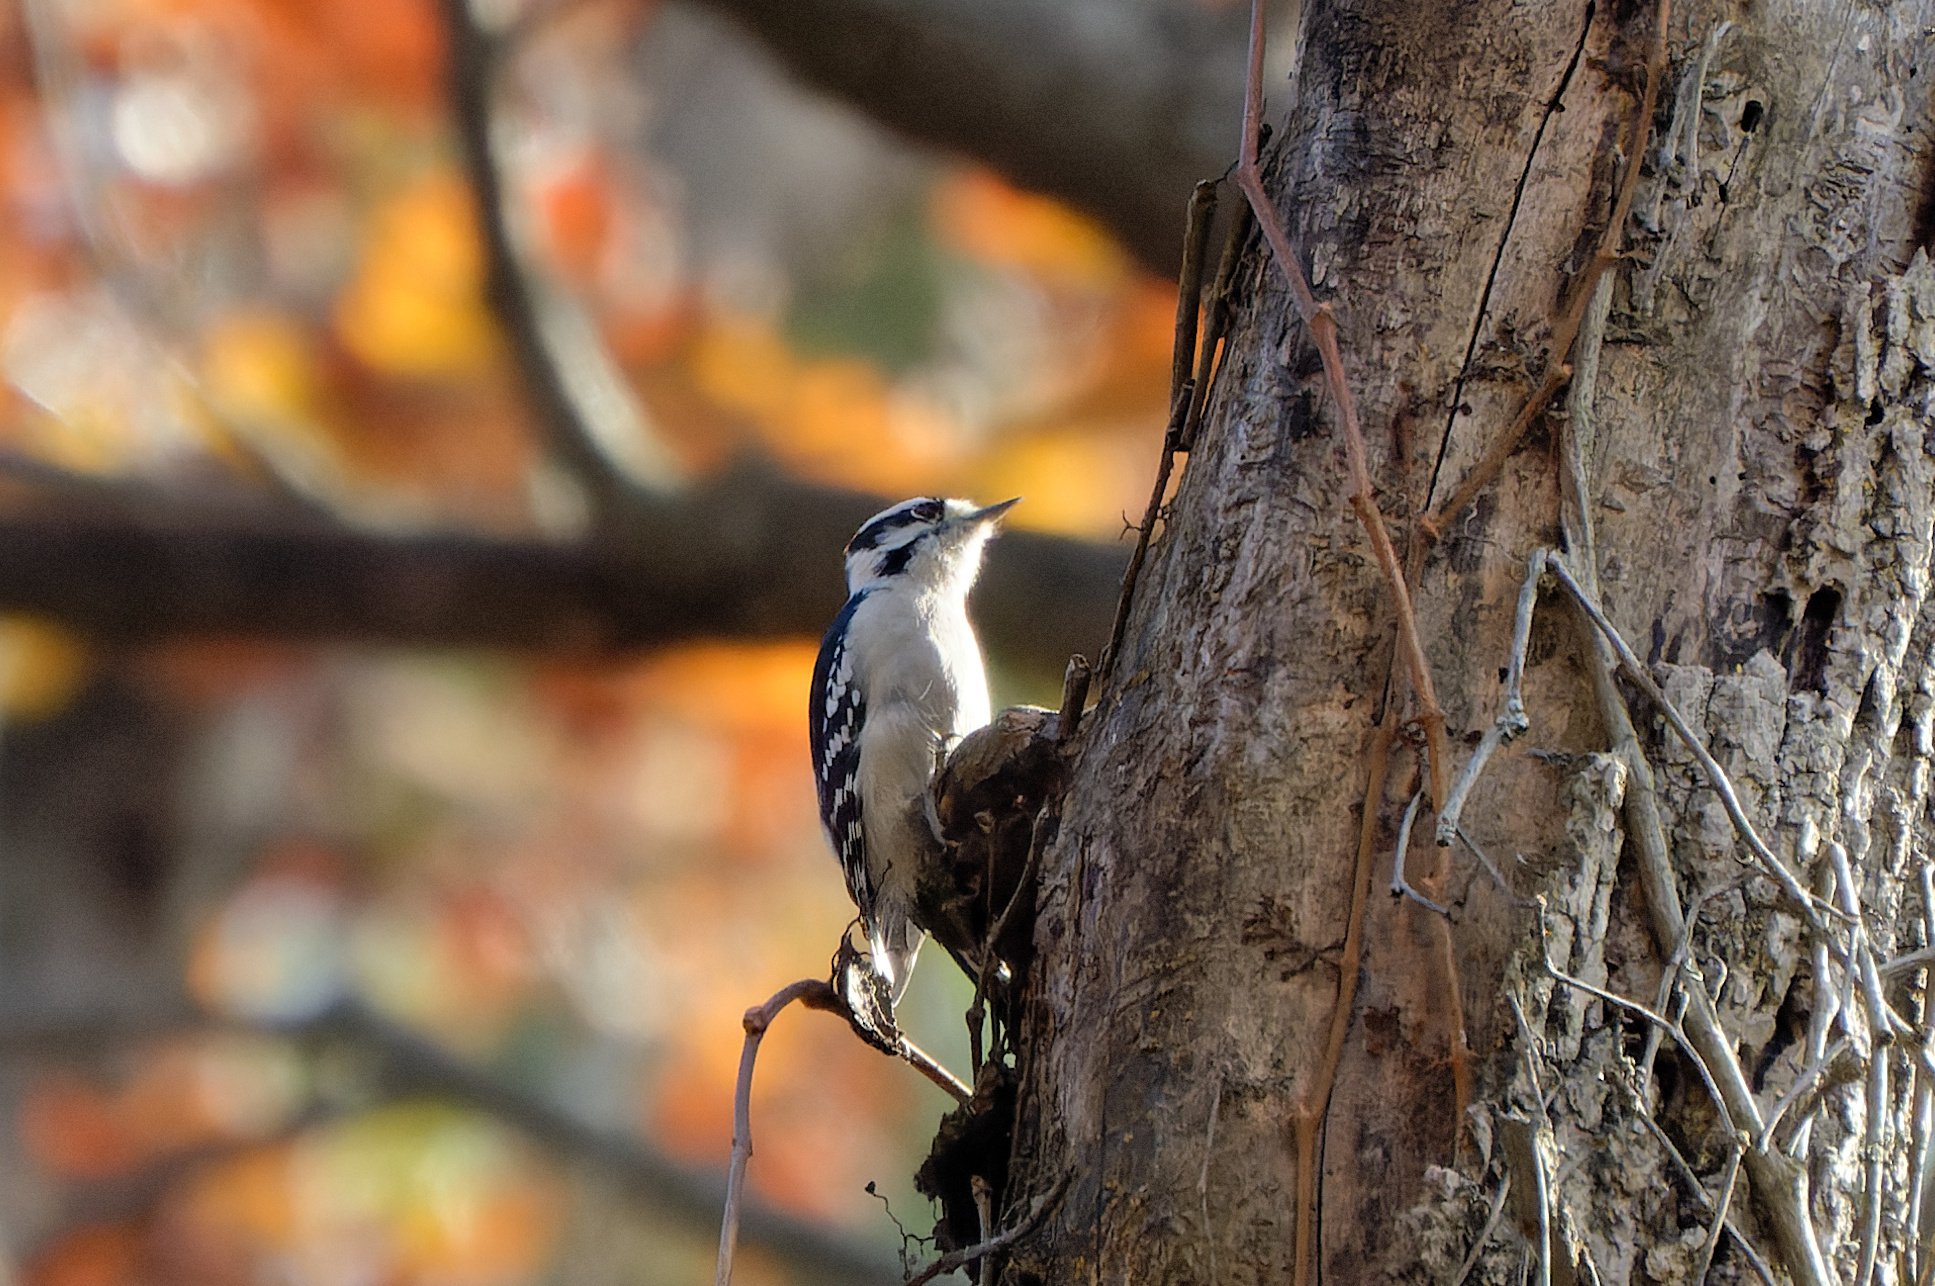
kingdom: Animalia
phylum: Chordata
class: Aves
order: Piciformes
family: Picidae
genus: Dryobates
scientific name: Dryobates pubescens
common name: Downy woodpecker
